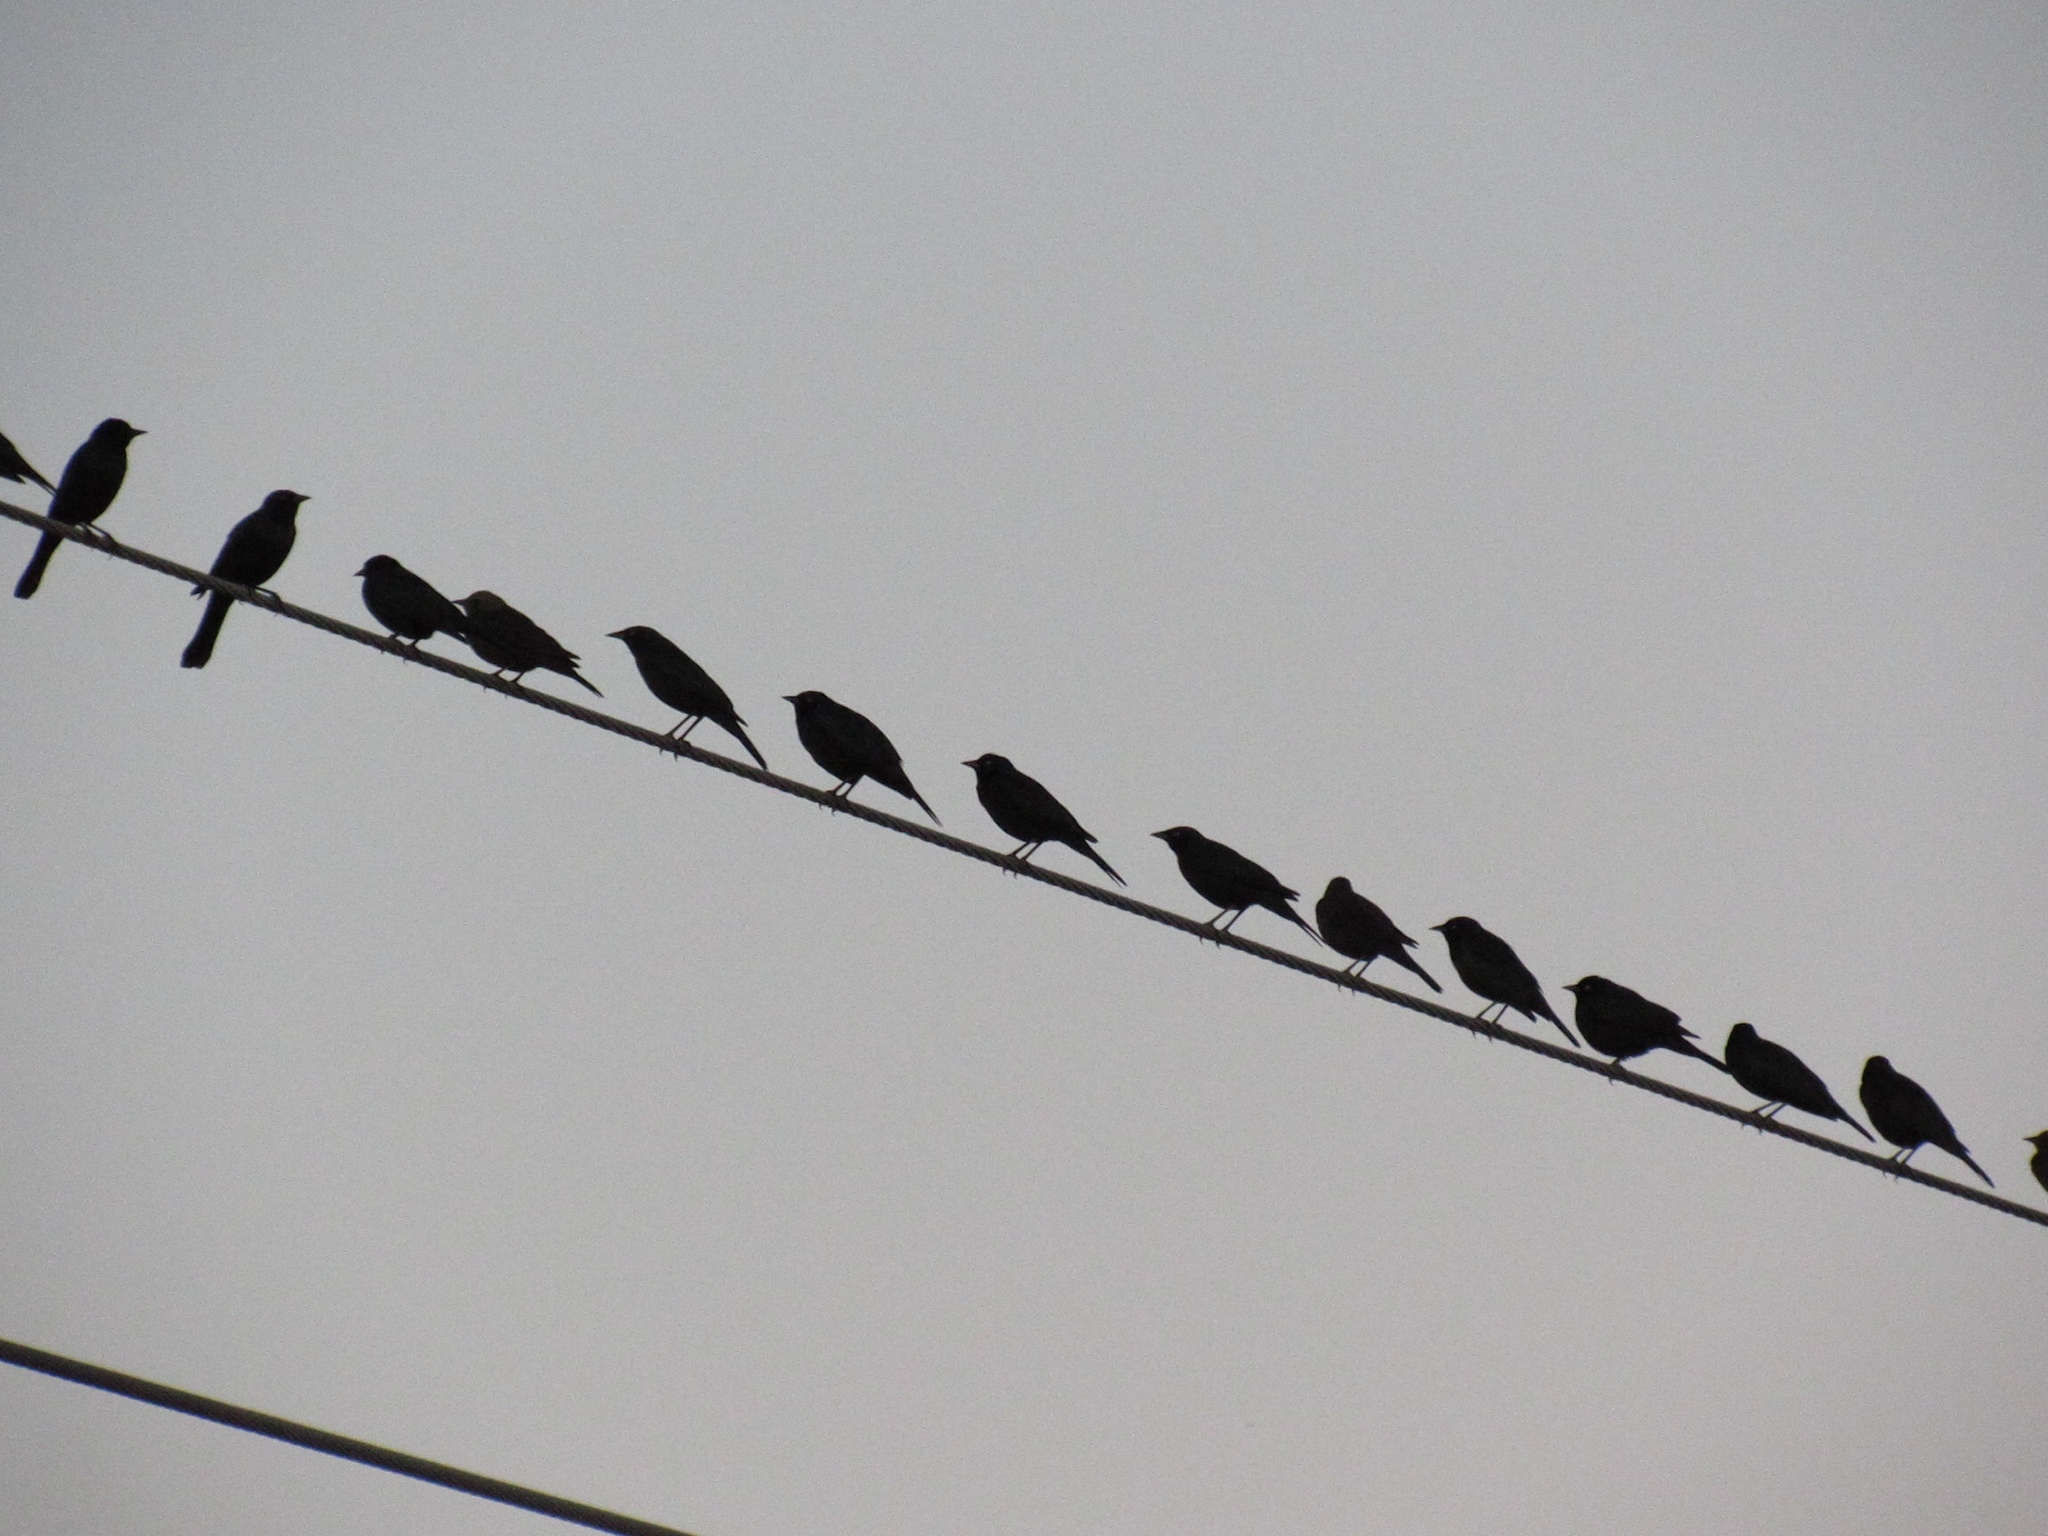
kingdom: Animalia
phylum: Chordata
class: Aves
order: Passeriformes
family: Icteridae
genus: Euphagus
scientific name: Euphagus cyanocephalus
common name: Brewer's blackbird
